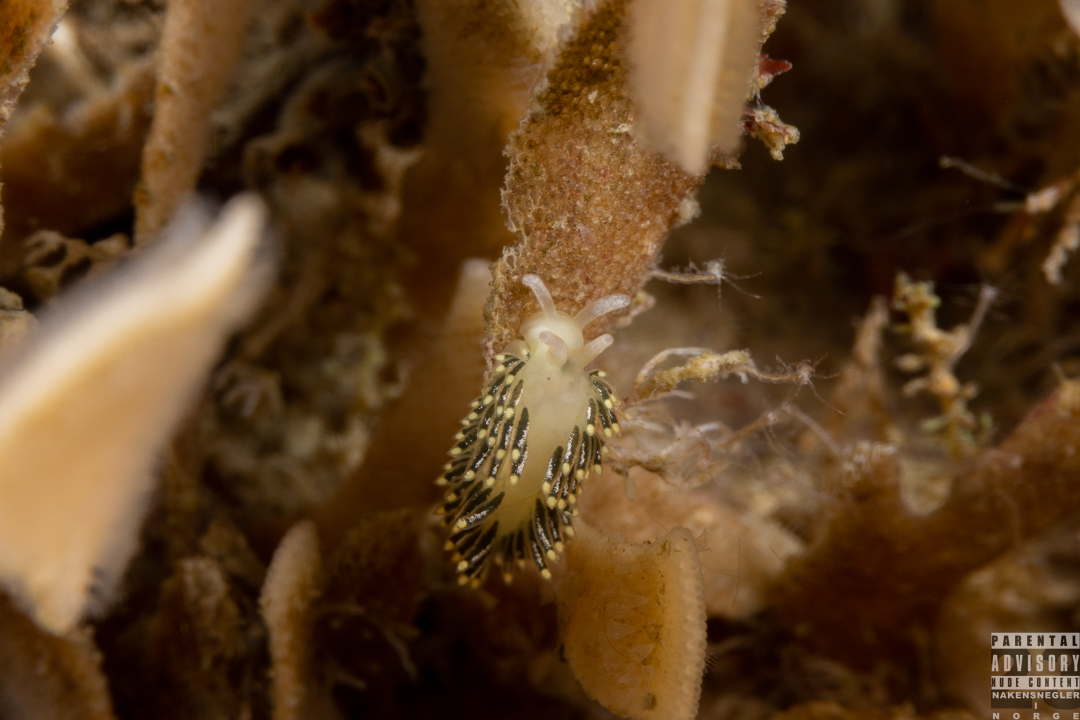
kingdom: Animalia
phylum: Mollusca
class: Gastropoda
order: Nudibranchia
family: Trinchesiidae
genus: Diaphoreolis
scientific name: Diaphoreolis viridis
